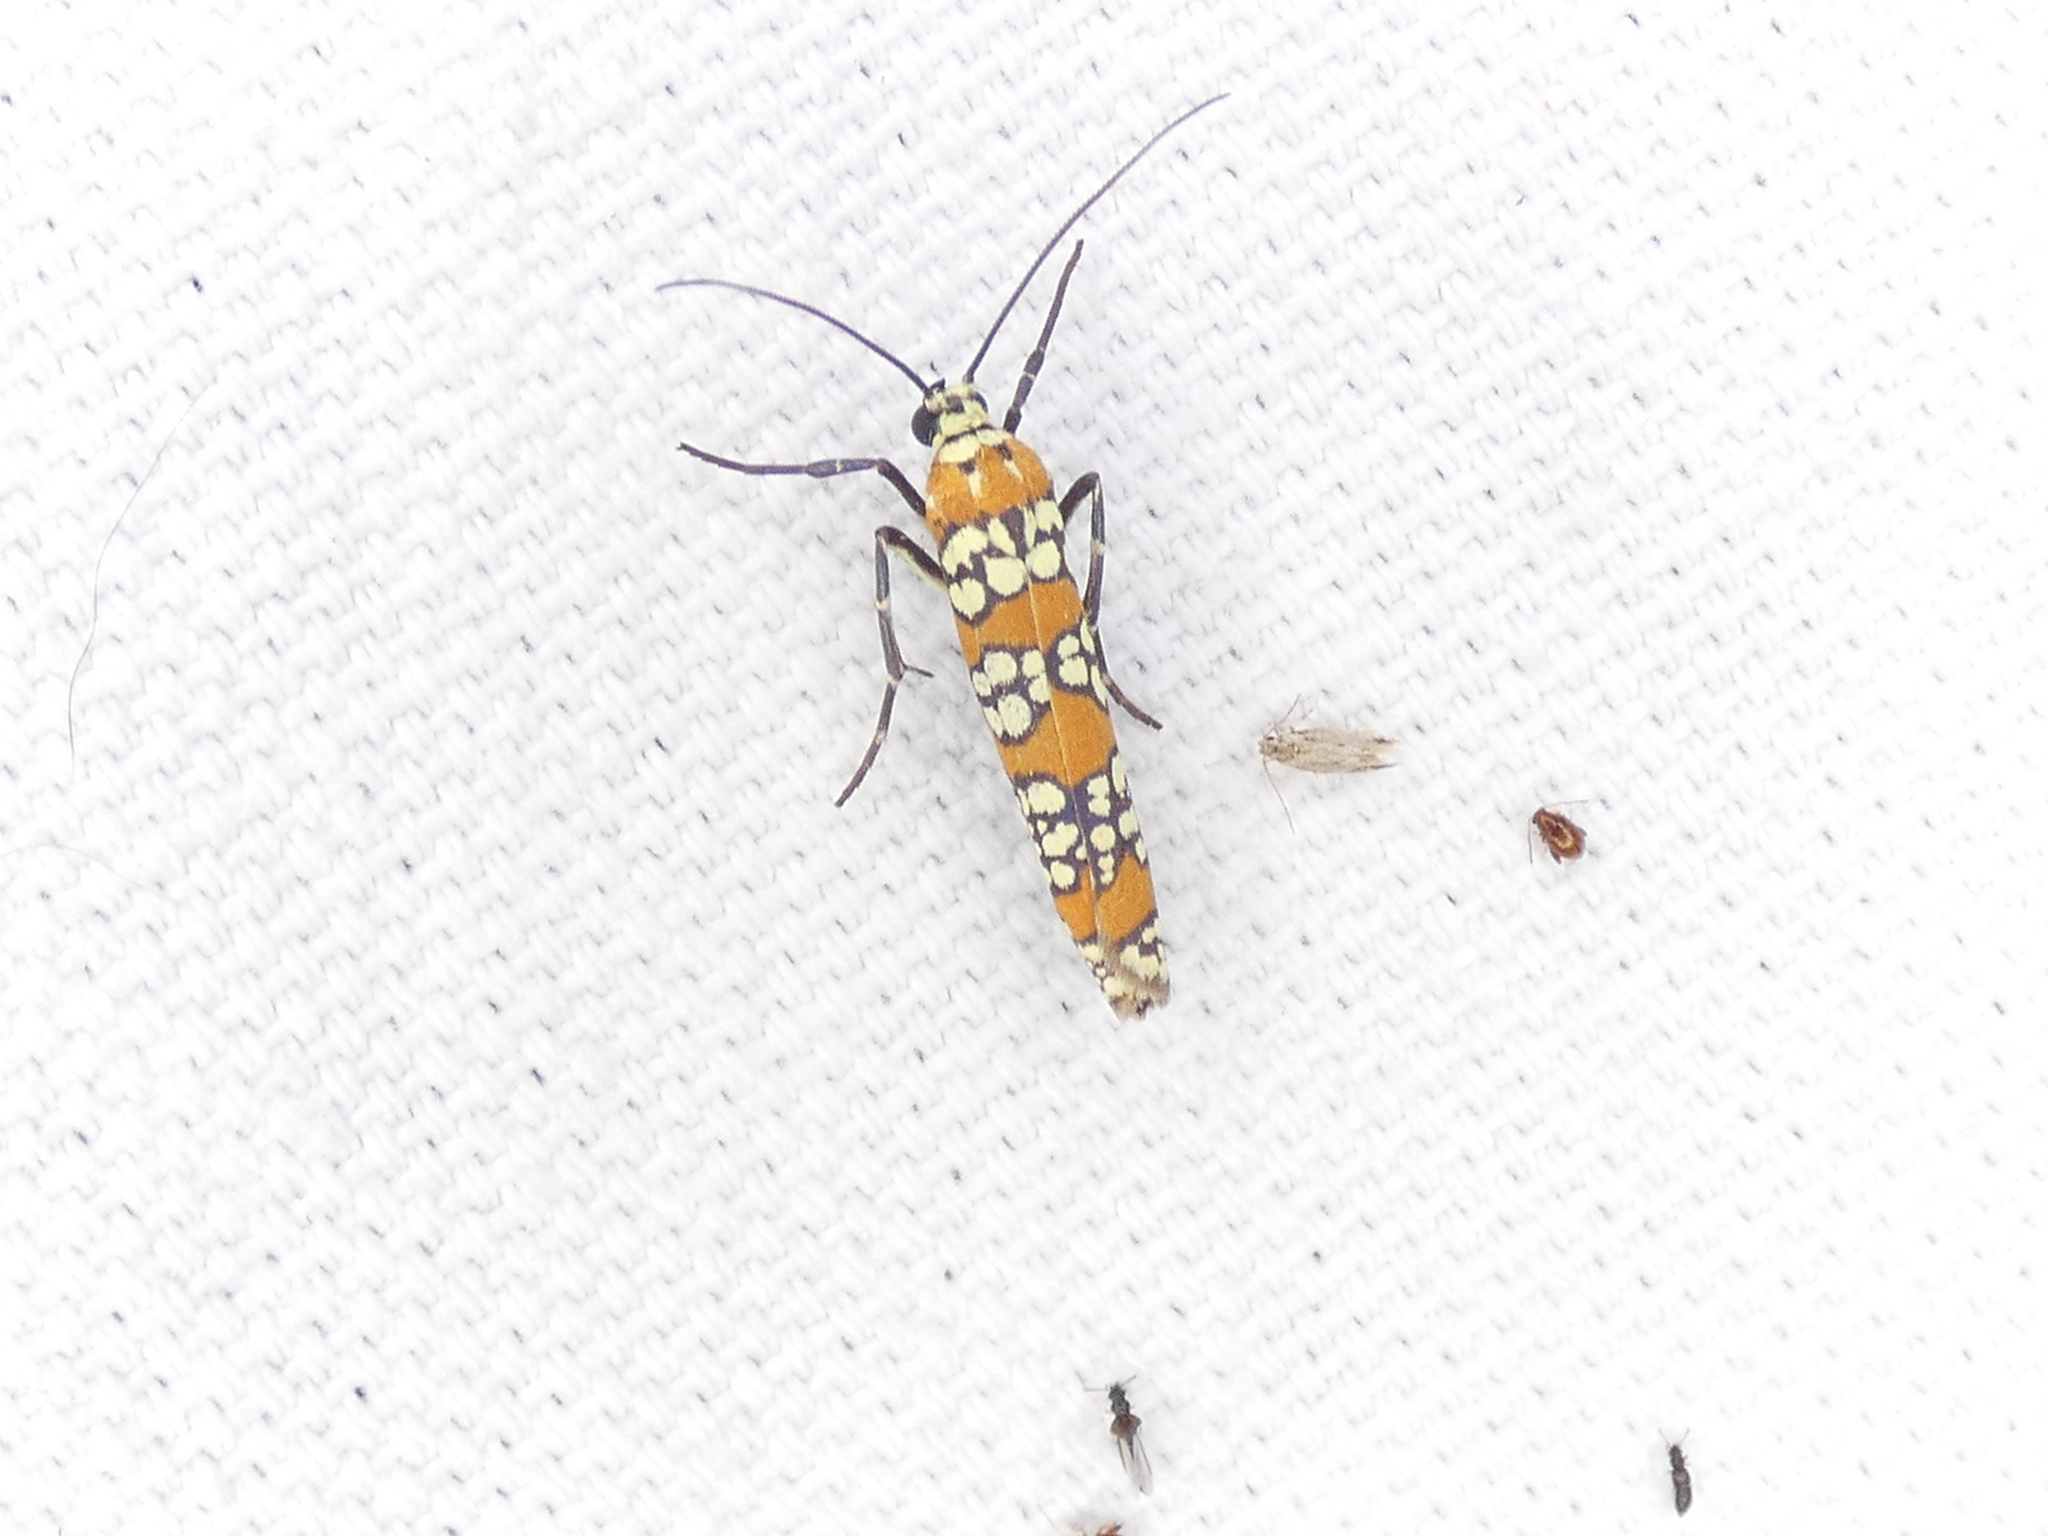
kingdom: Animalia
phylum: Arthropoda
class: Insecta
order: Lepidoptera
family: Attevidae
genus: Atteva
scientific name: Atteva punctella
